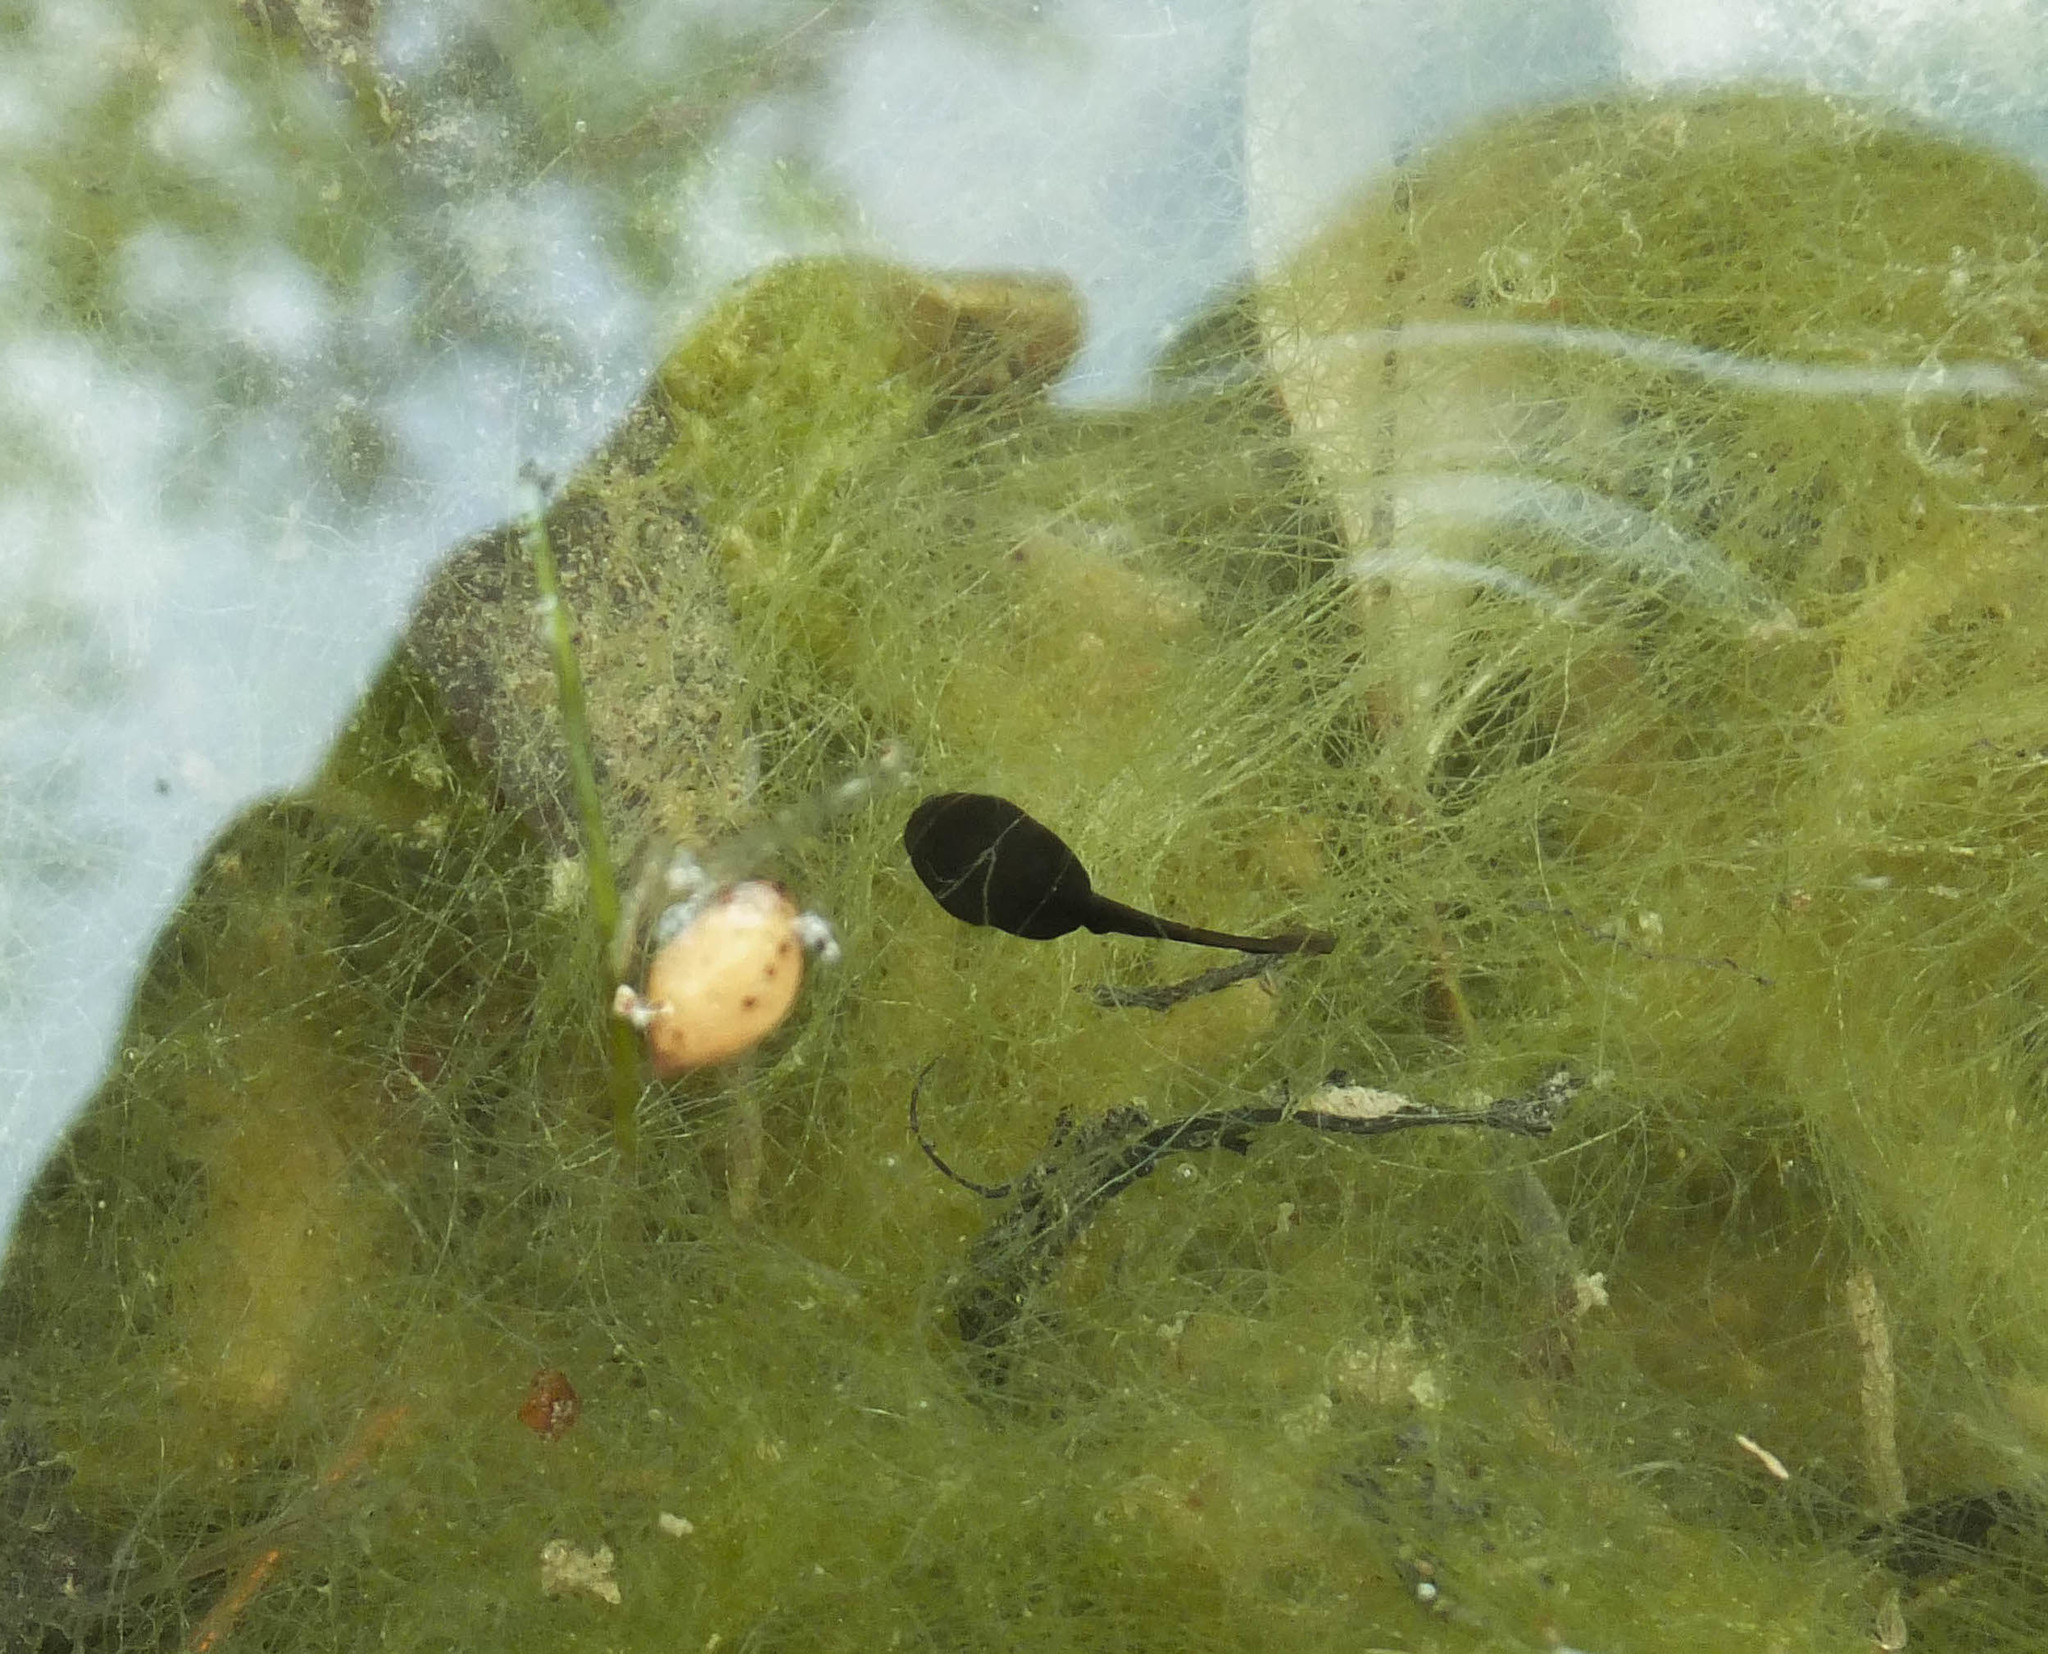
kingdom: Animalia
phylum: Chordata
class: Amphibia
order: Anura
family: Bufonidae
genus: Bufo
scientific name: Bufo bufo
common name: Common toad
